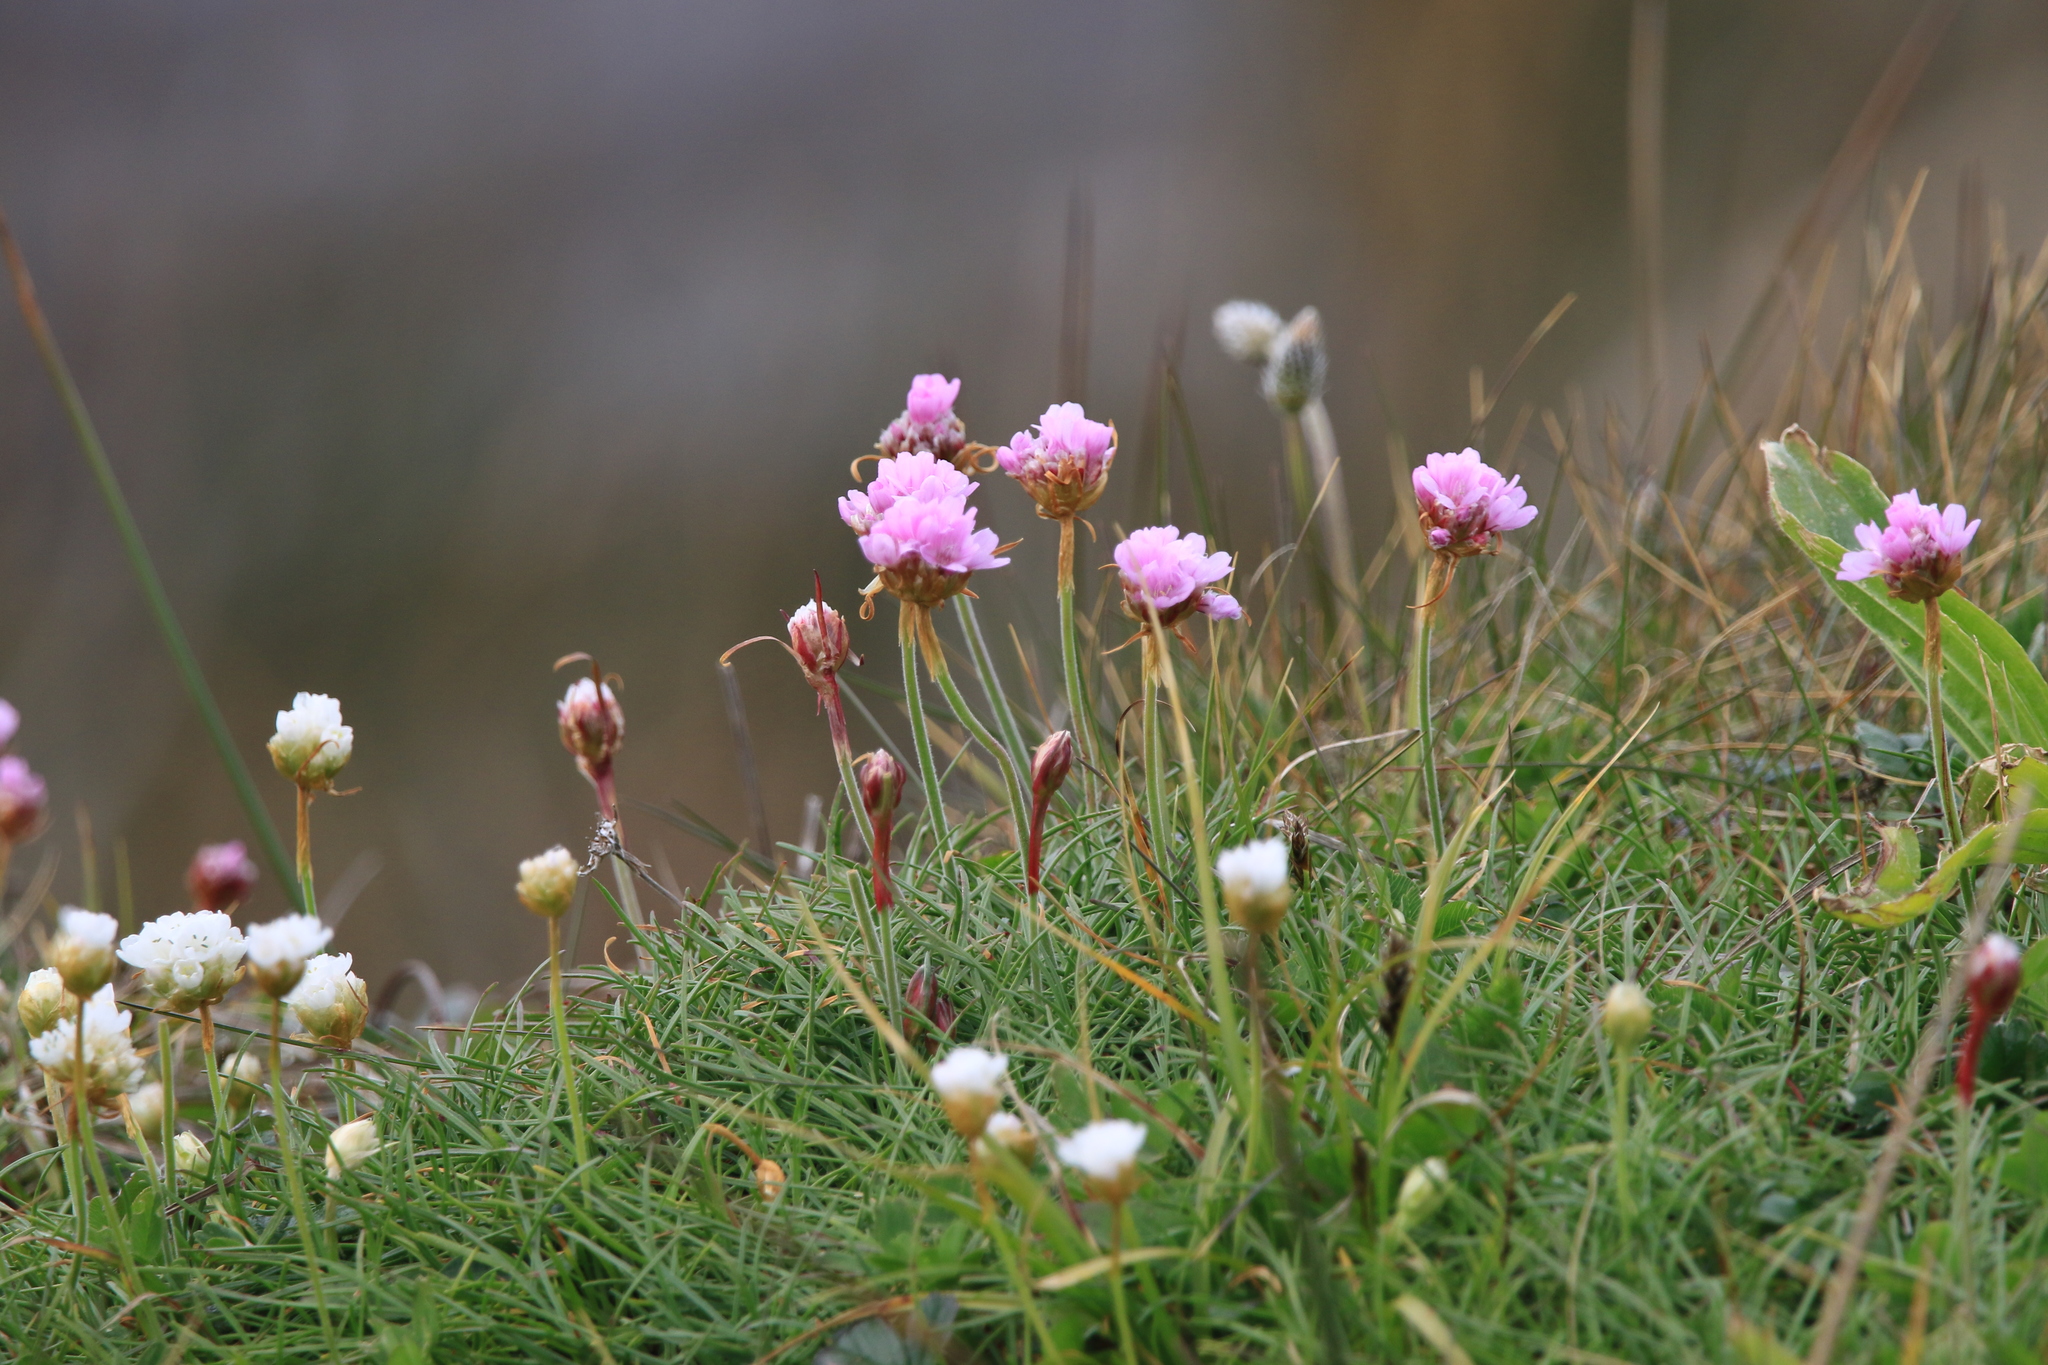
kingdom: Plantae
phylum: Tracheophyta
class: Magnoliopsida
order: Caryophyllales
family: Plumbaginaceae
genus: Armeria
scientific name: Armeria maritima
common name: Thrift
